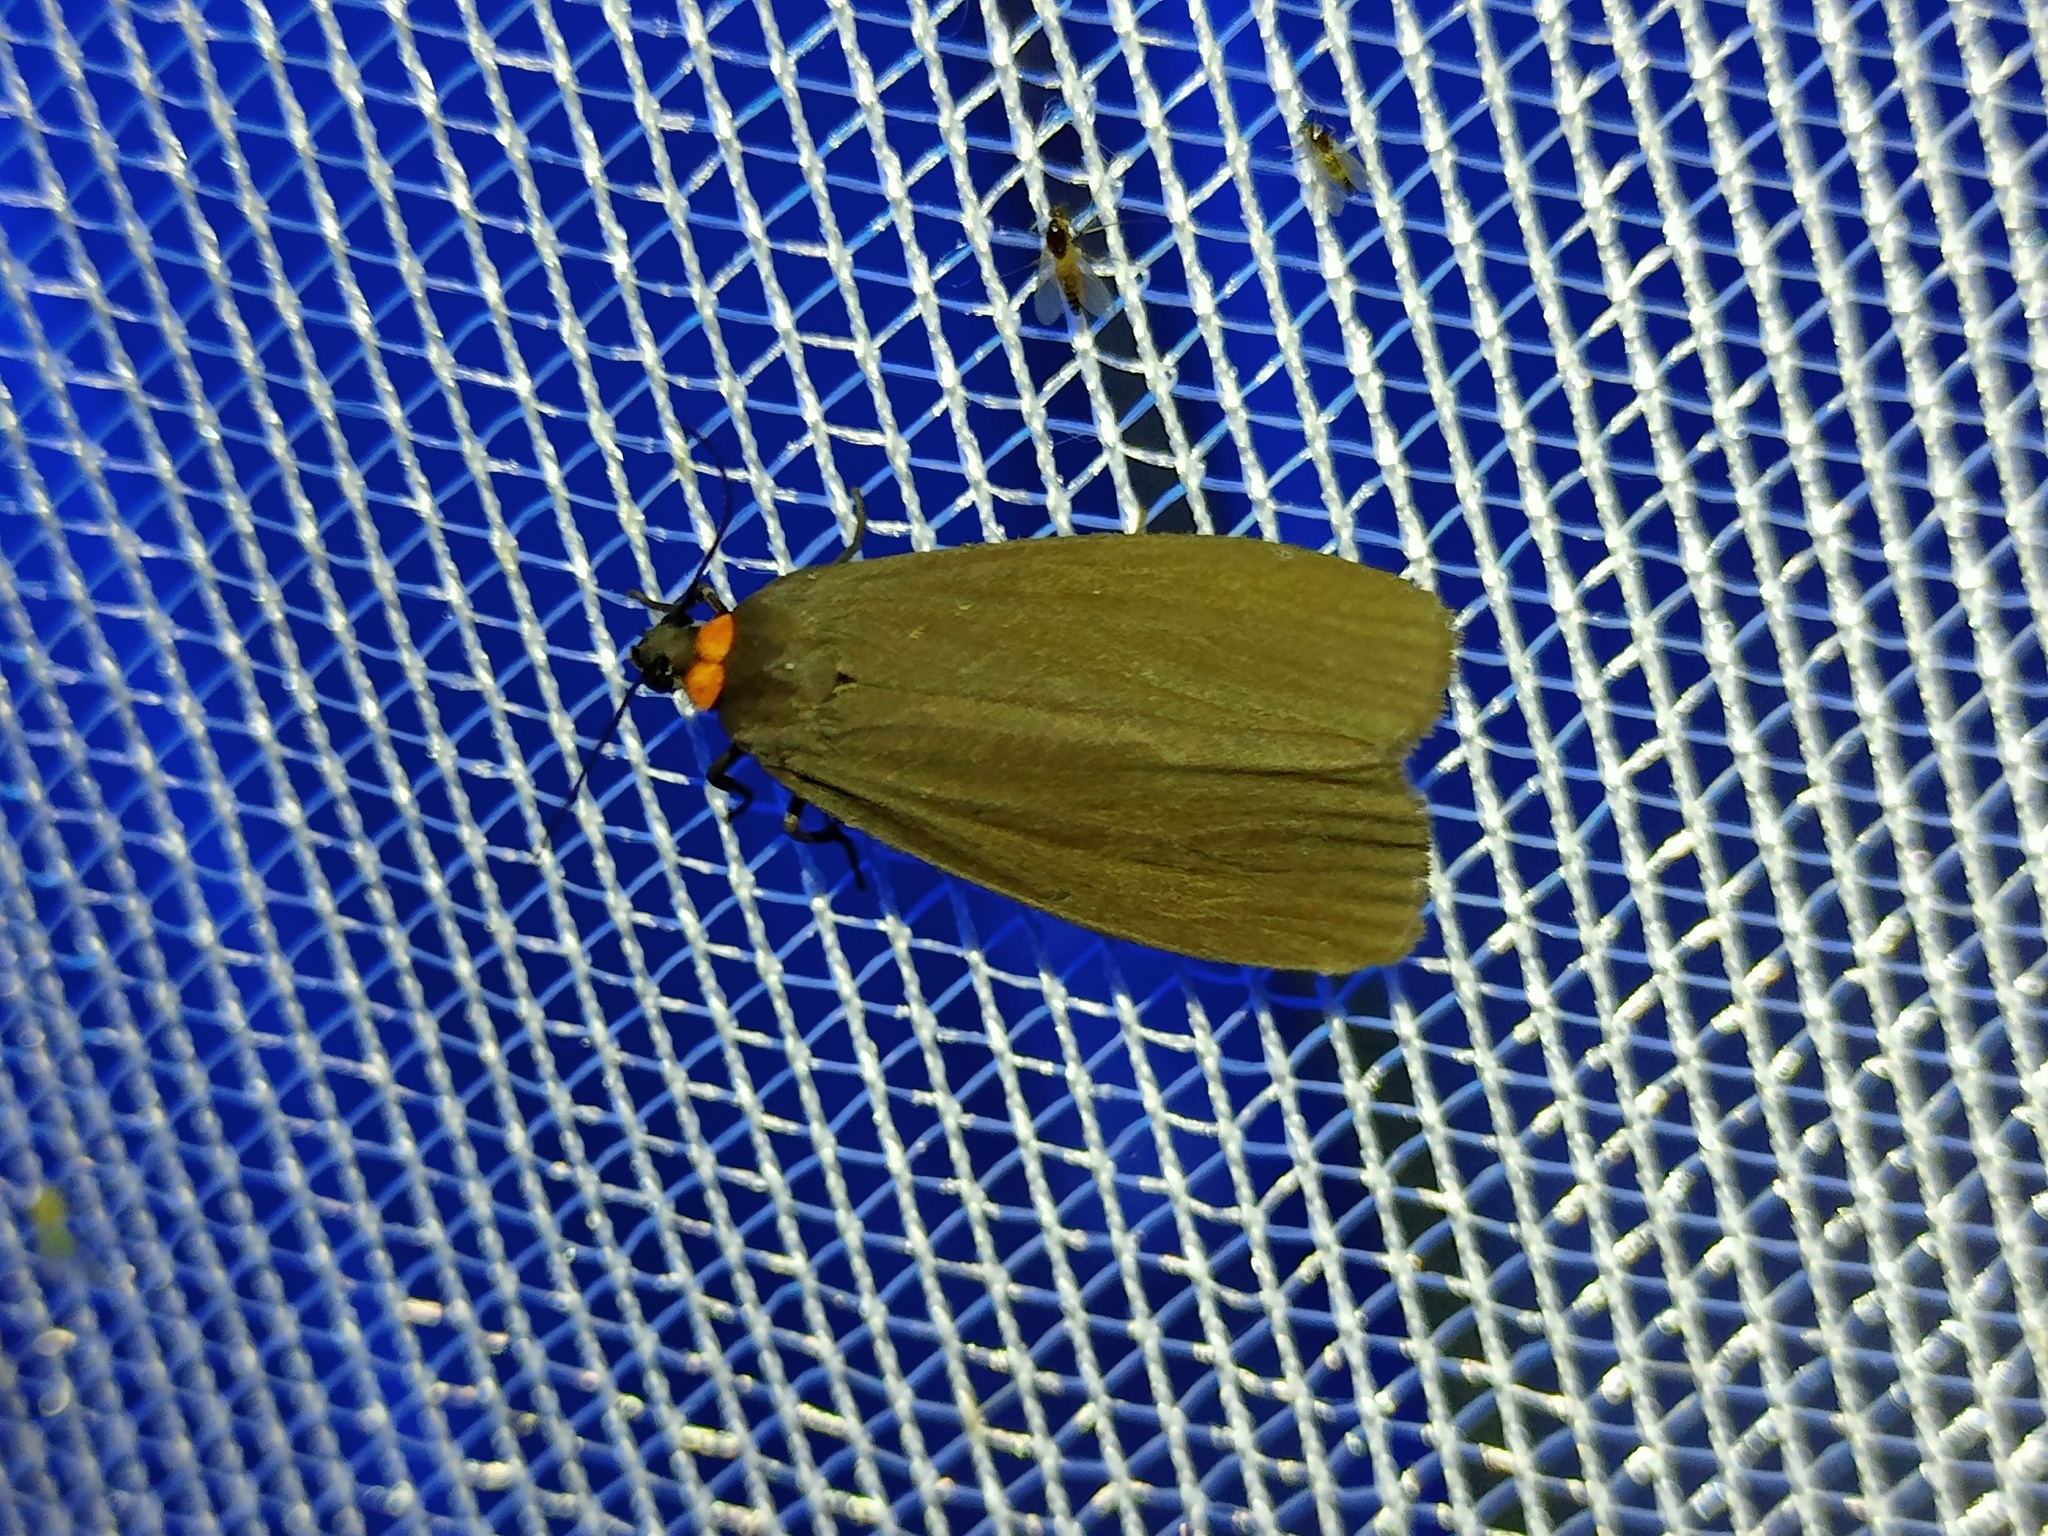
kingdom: Animalia
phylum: Arthropoda
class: Insecta
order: Lepidoptera
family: Erebidae
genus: Atolmis
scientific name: Atolmis rubricollis
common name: Red-necked footman
